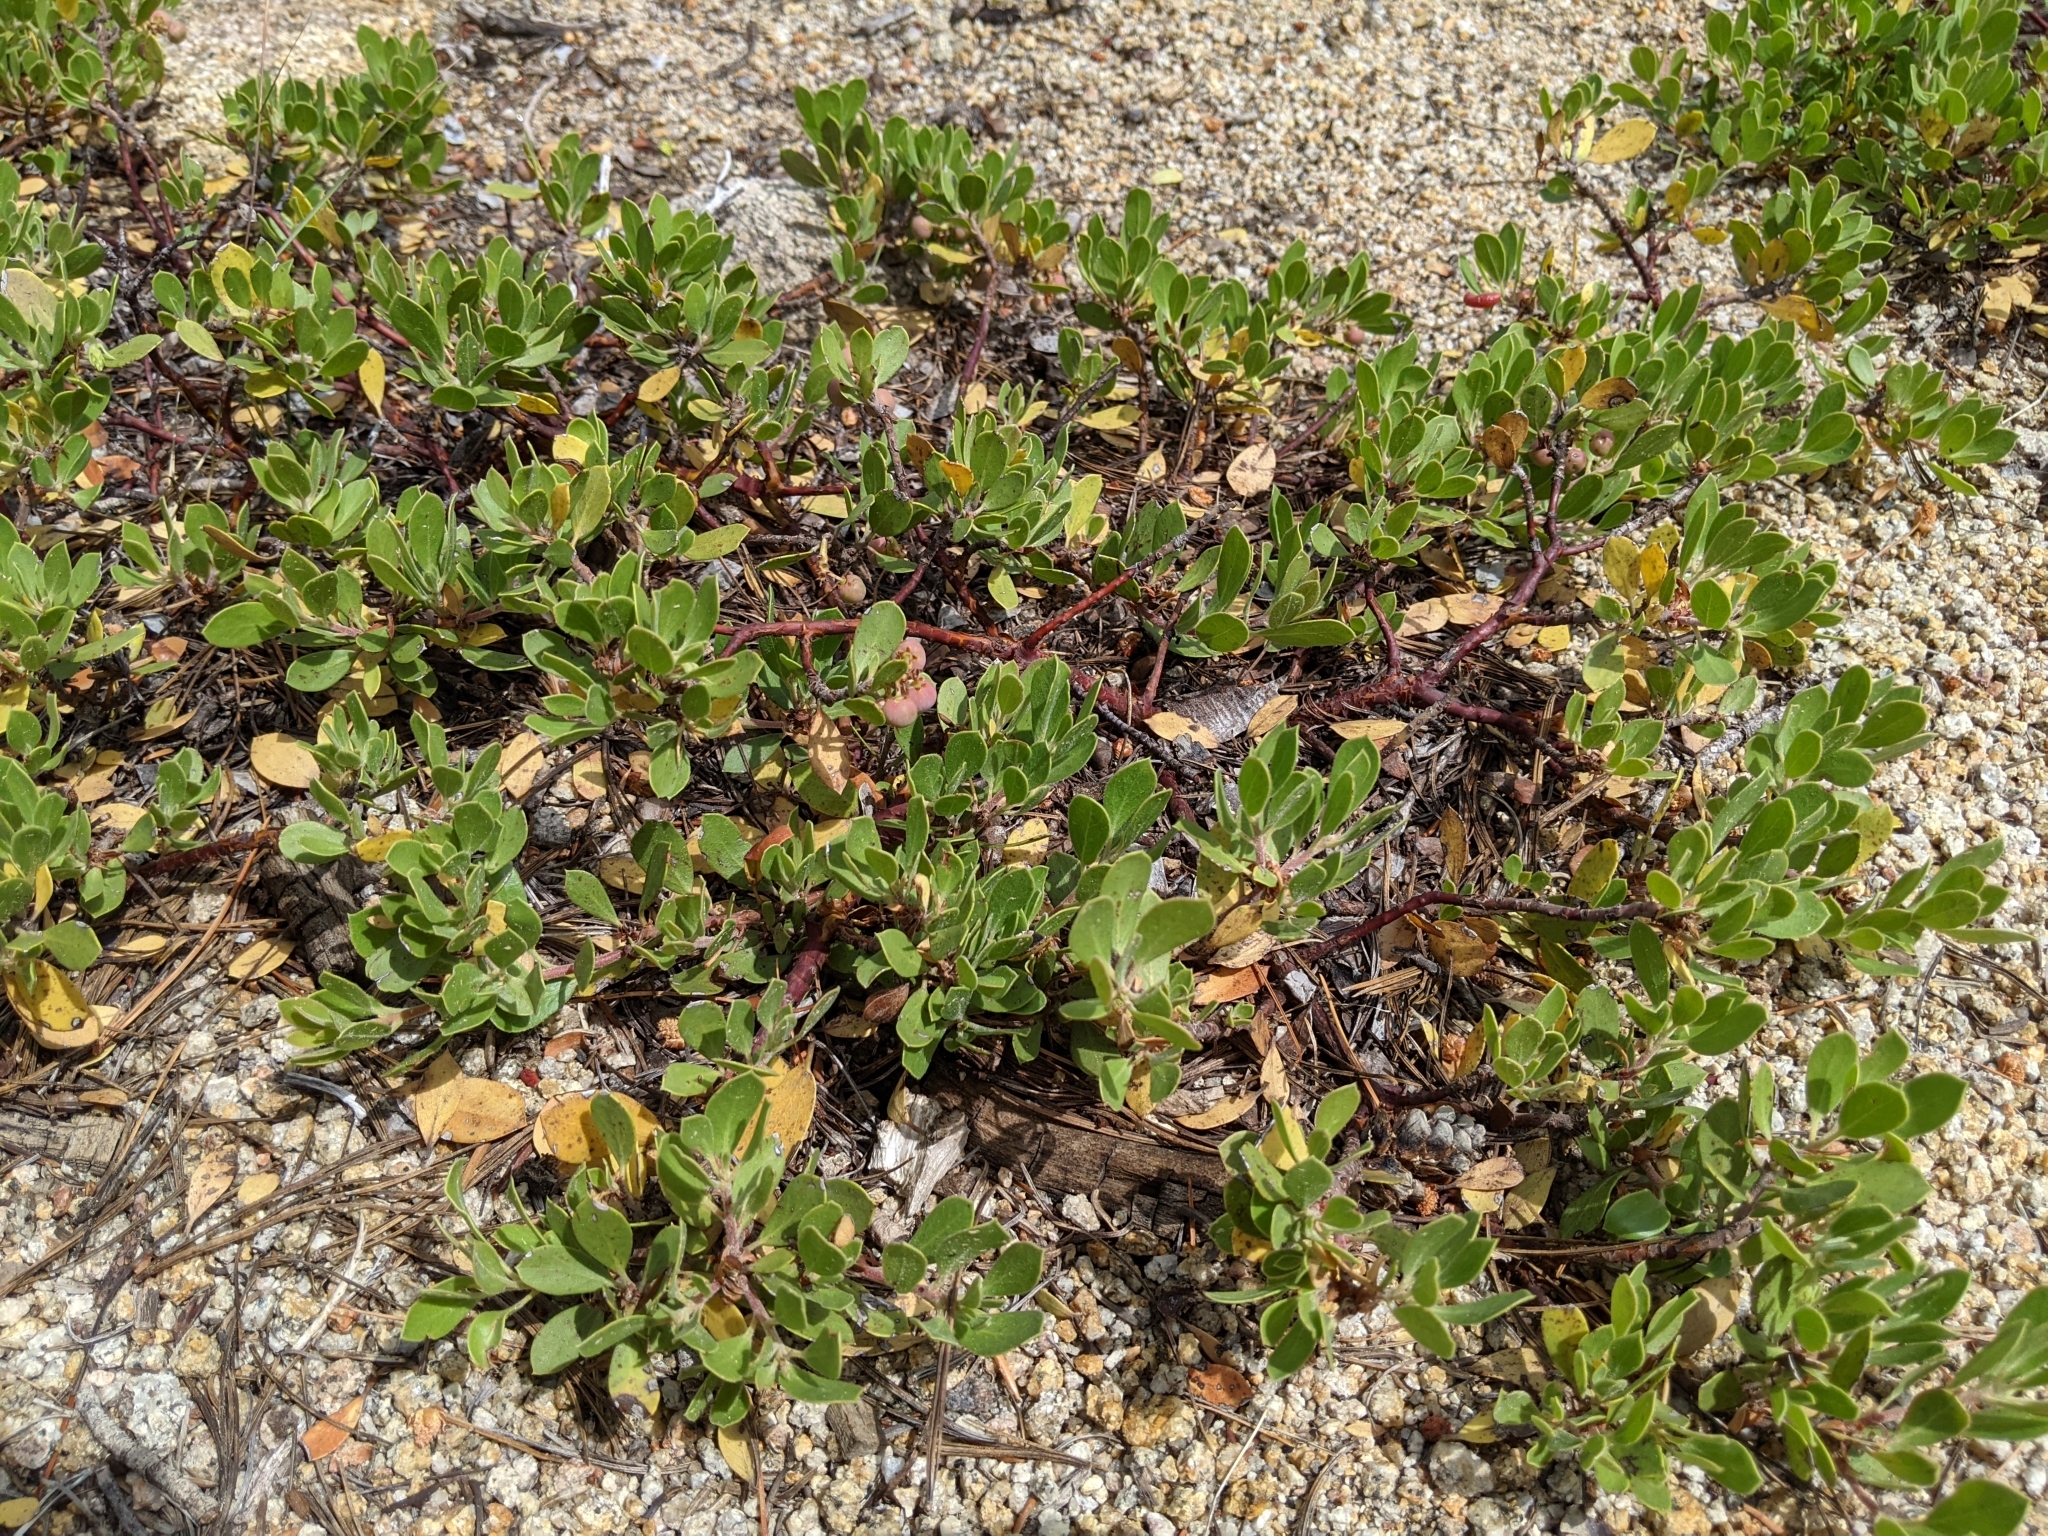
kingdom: Plantae
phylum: Tracheophyta
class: Magnoliopsida
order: Ericales
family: Ericaceae
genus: Arctostaphylos
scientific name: Arctostaphylos nevadensis
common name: Pinemat manzanita
